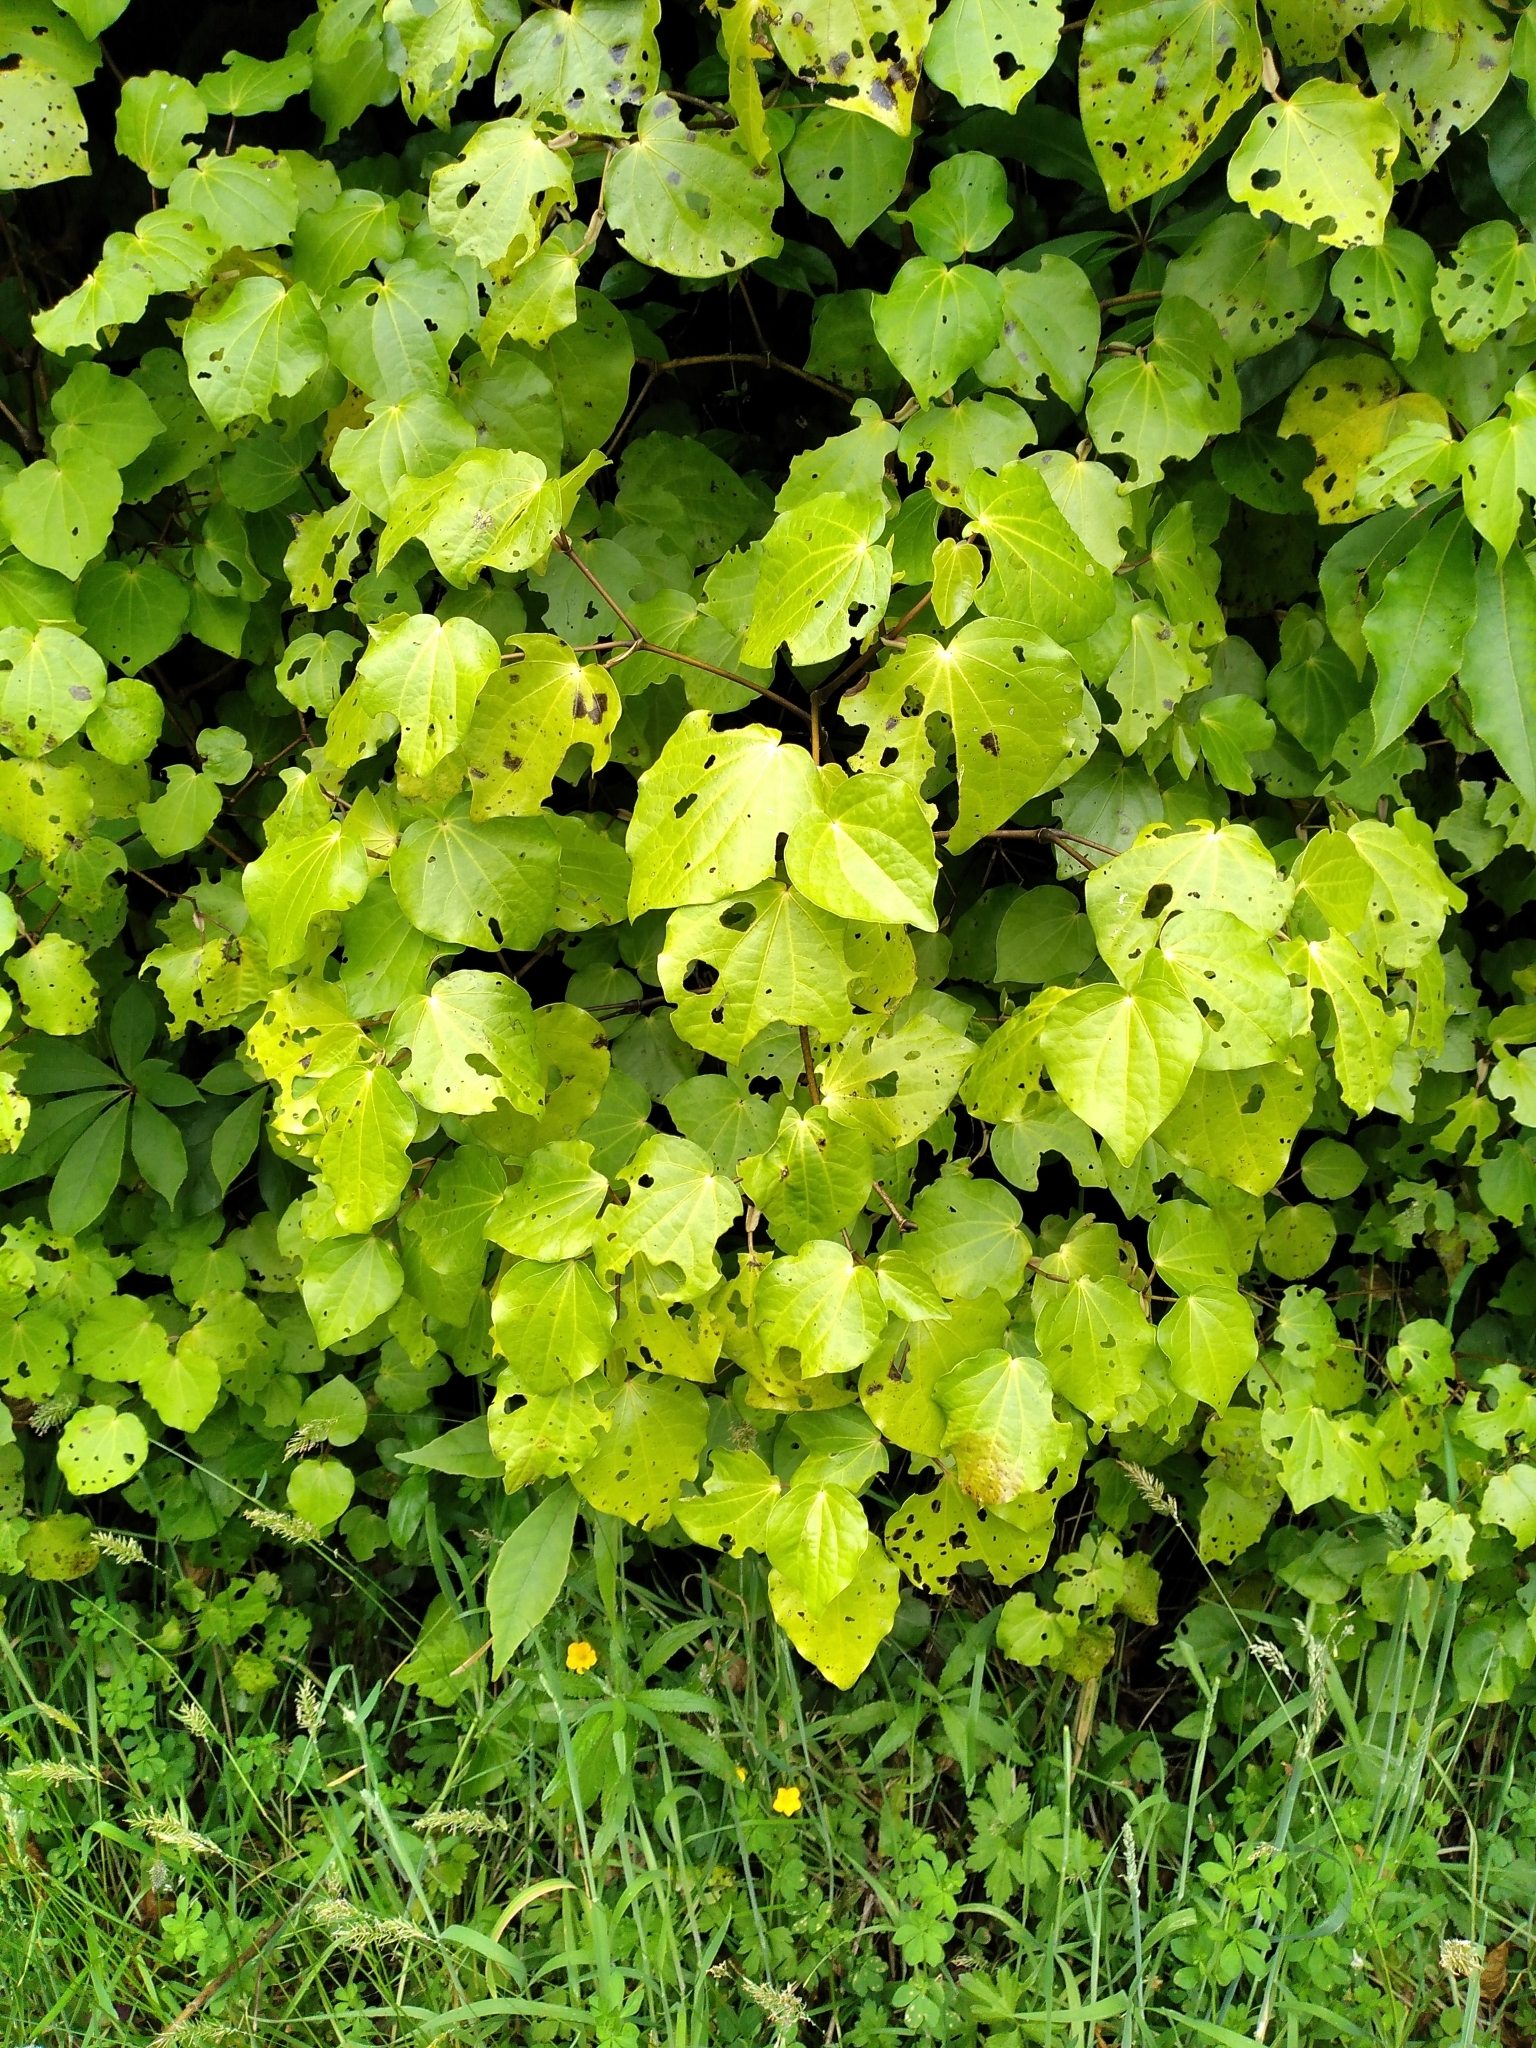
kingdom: Plantae
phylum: Tracheophyta
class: Magnoliopsida
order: Piperales
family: Piperaceae
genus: Macropiper
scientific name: Macropiper excelsum
